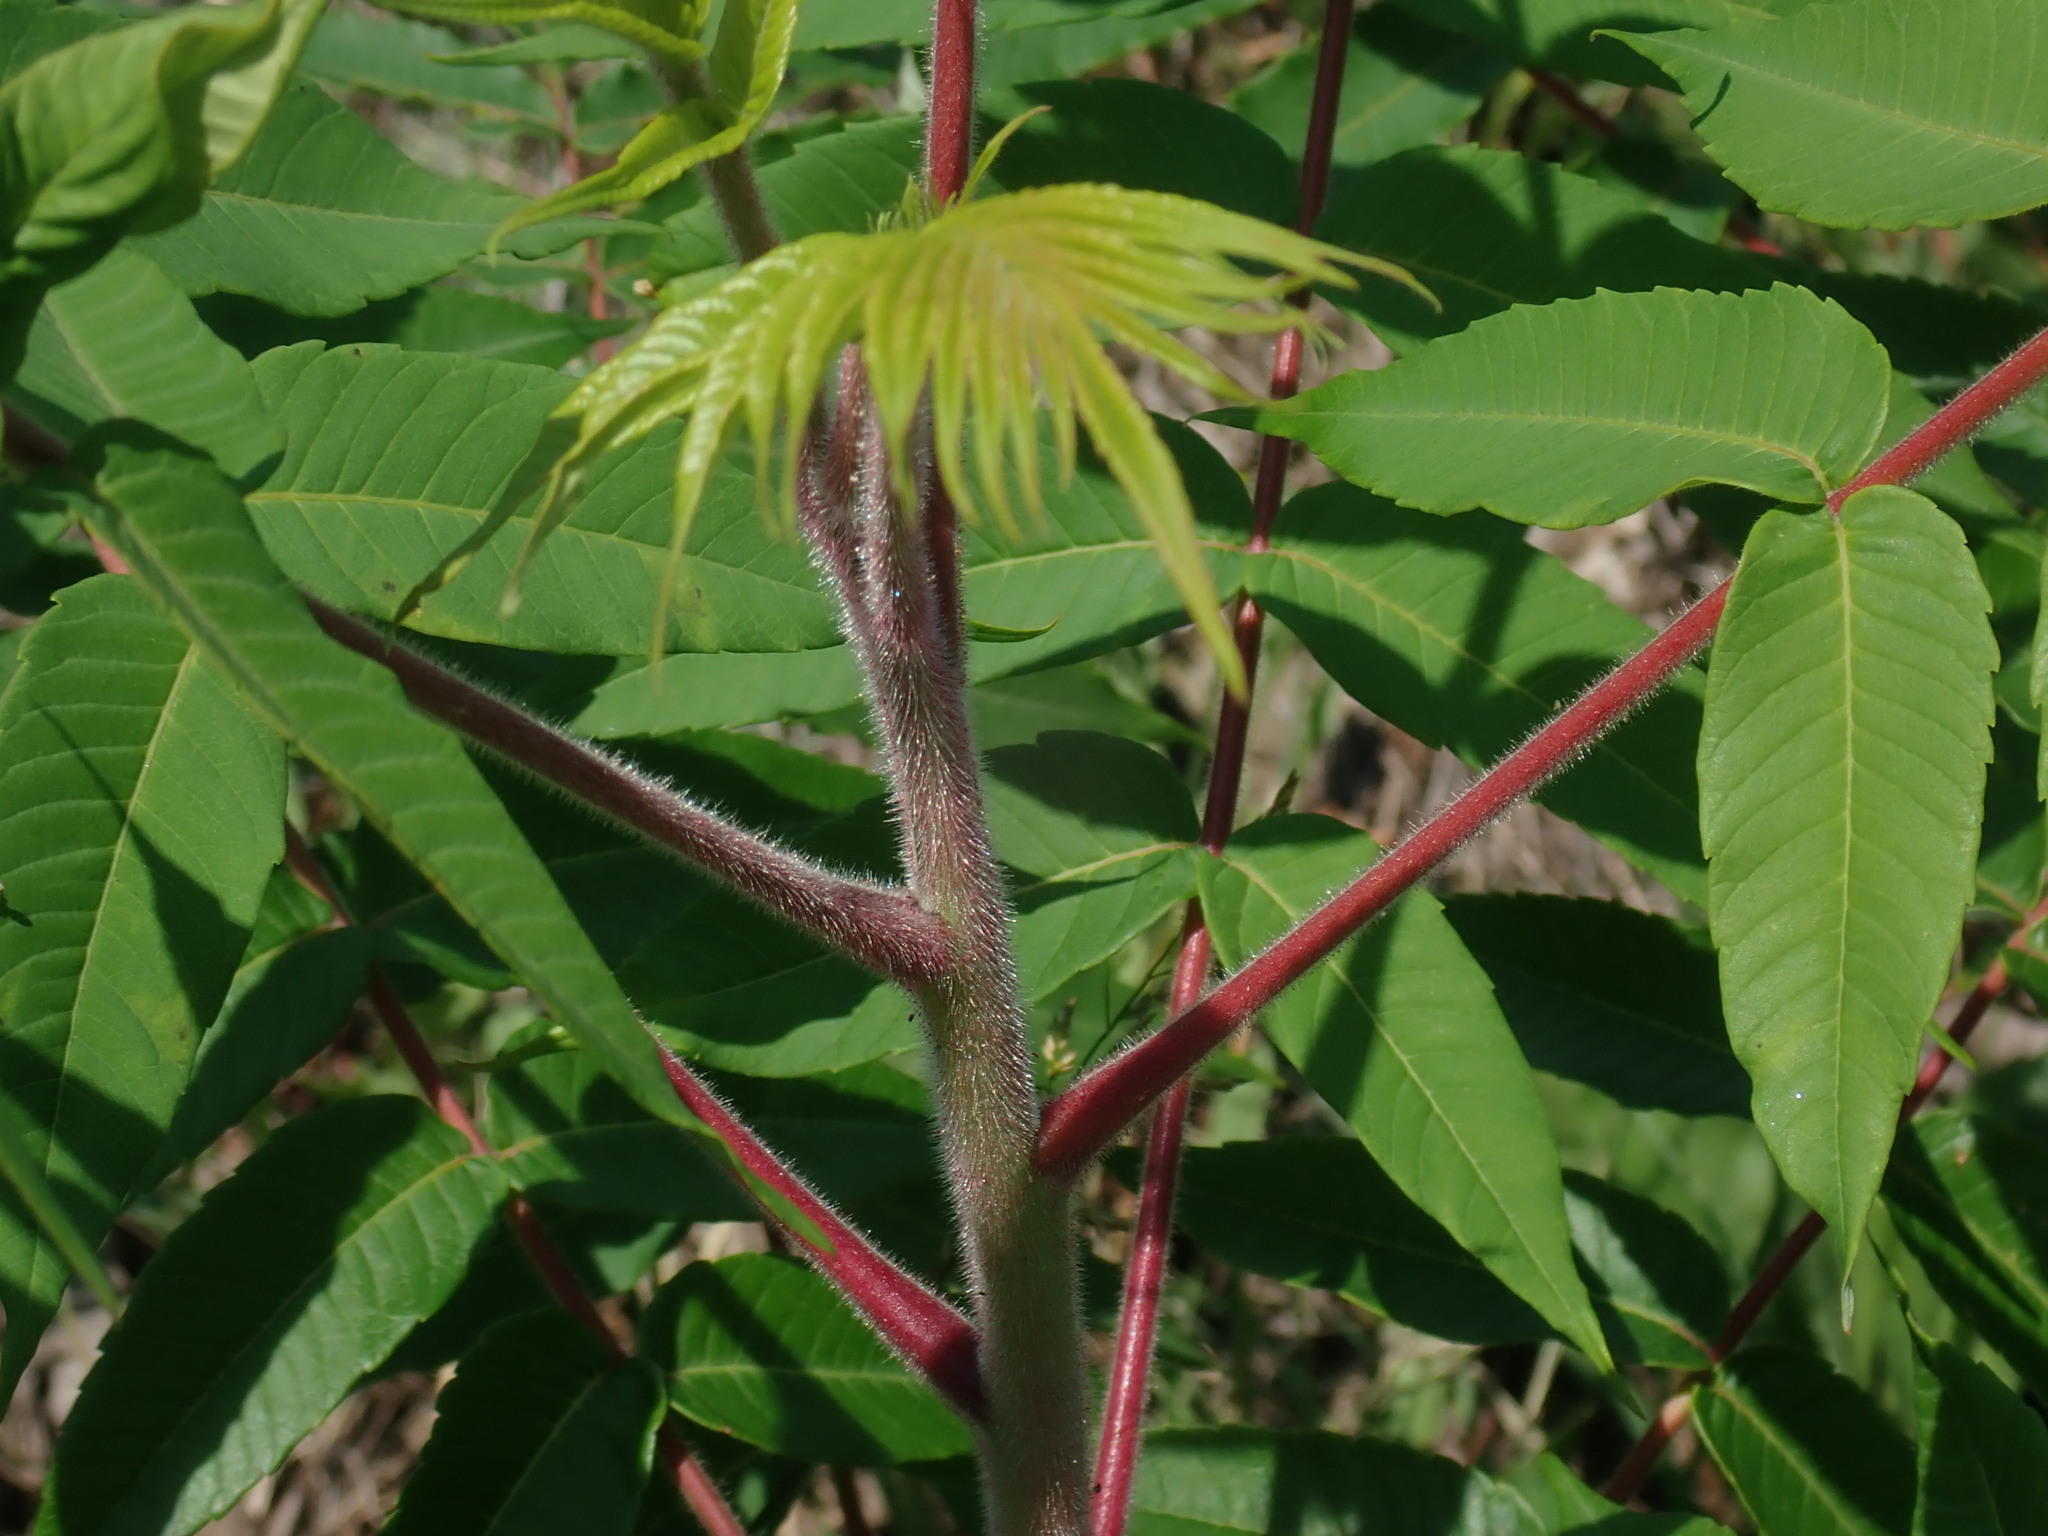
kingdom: Plantae
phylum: Tracheophyta
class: Magnoliopsida
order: Sapindales
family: Anacardiaceae
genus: Rhus
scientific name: Rhus typhina
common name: Staghorn sumac
